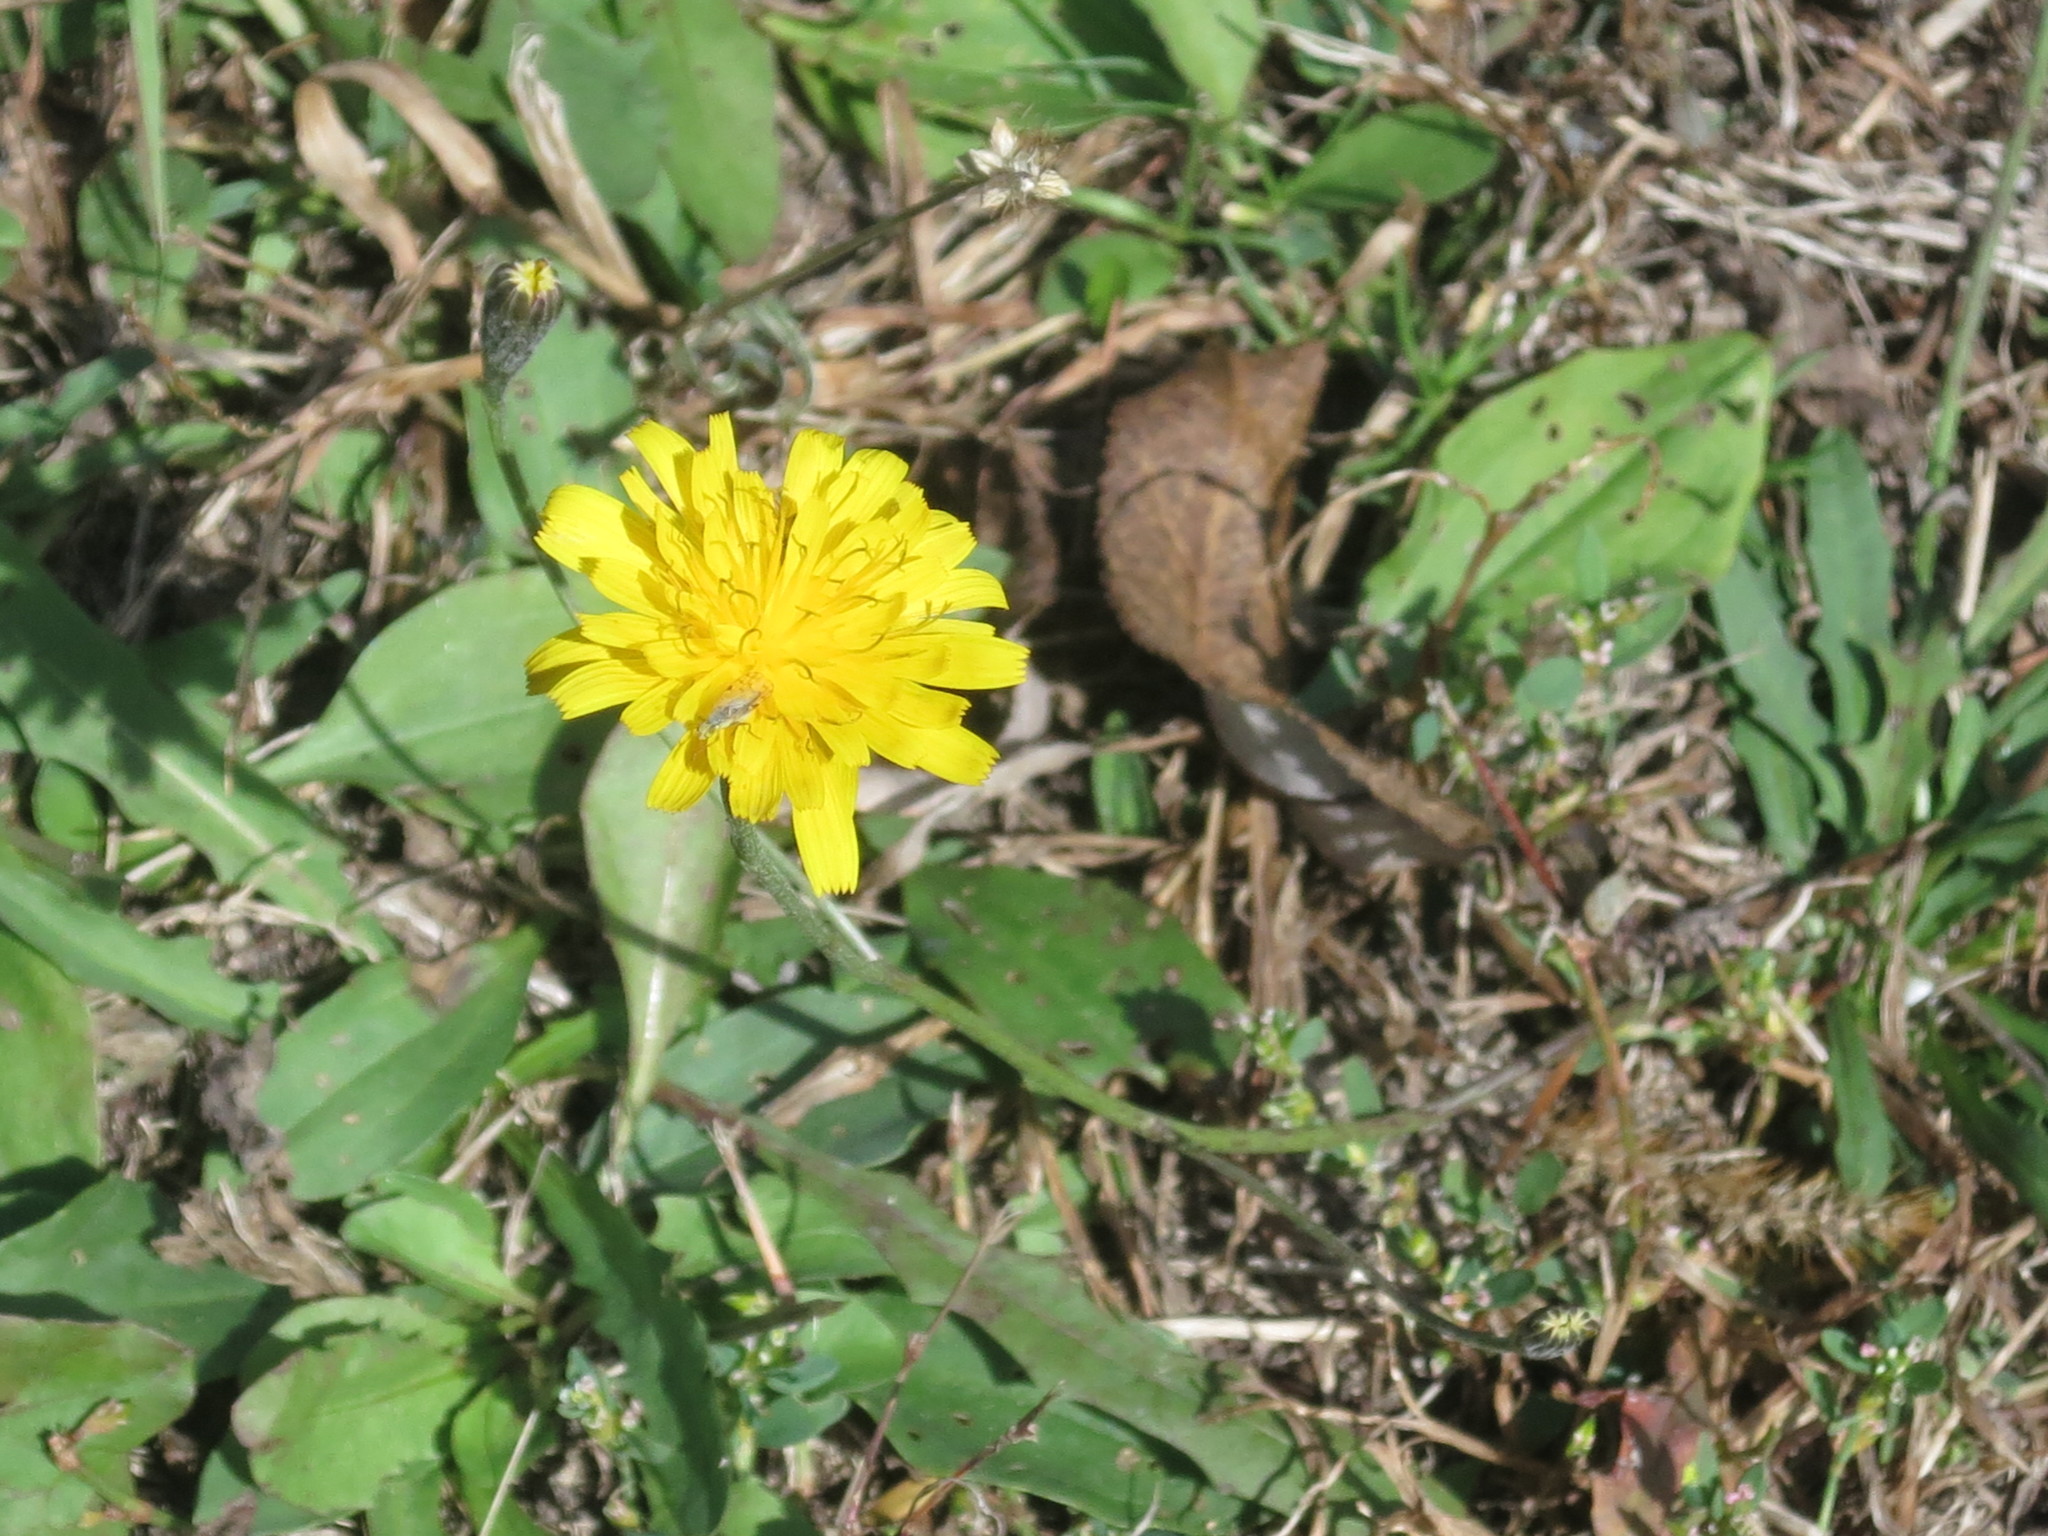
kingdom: Plantae
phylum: Tracheophyta
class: Magnoliopsida
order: Asterales
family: Asteraceae
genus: Scorzoneroides
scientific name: Scorzoneroides autumnalis
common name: Autumn hawkbit
